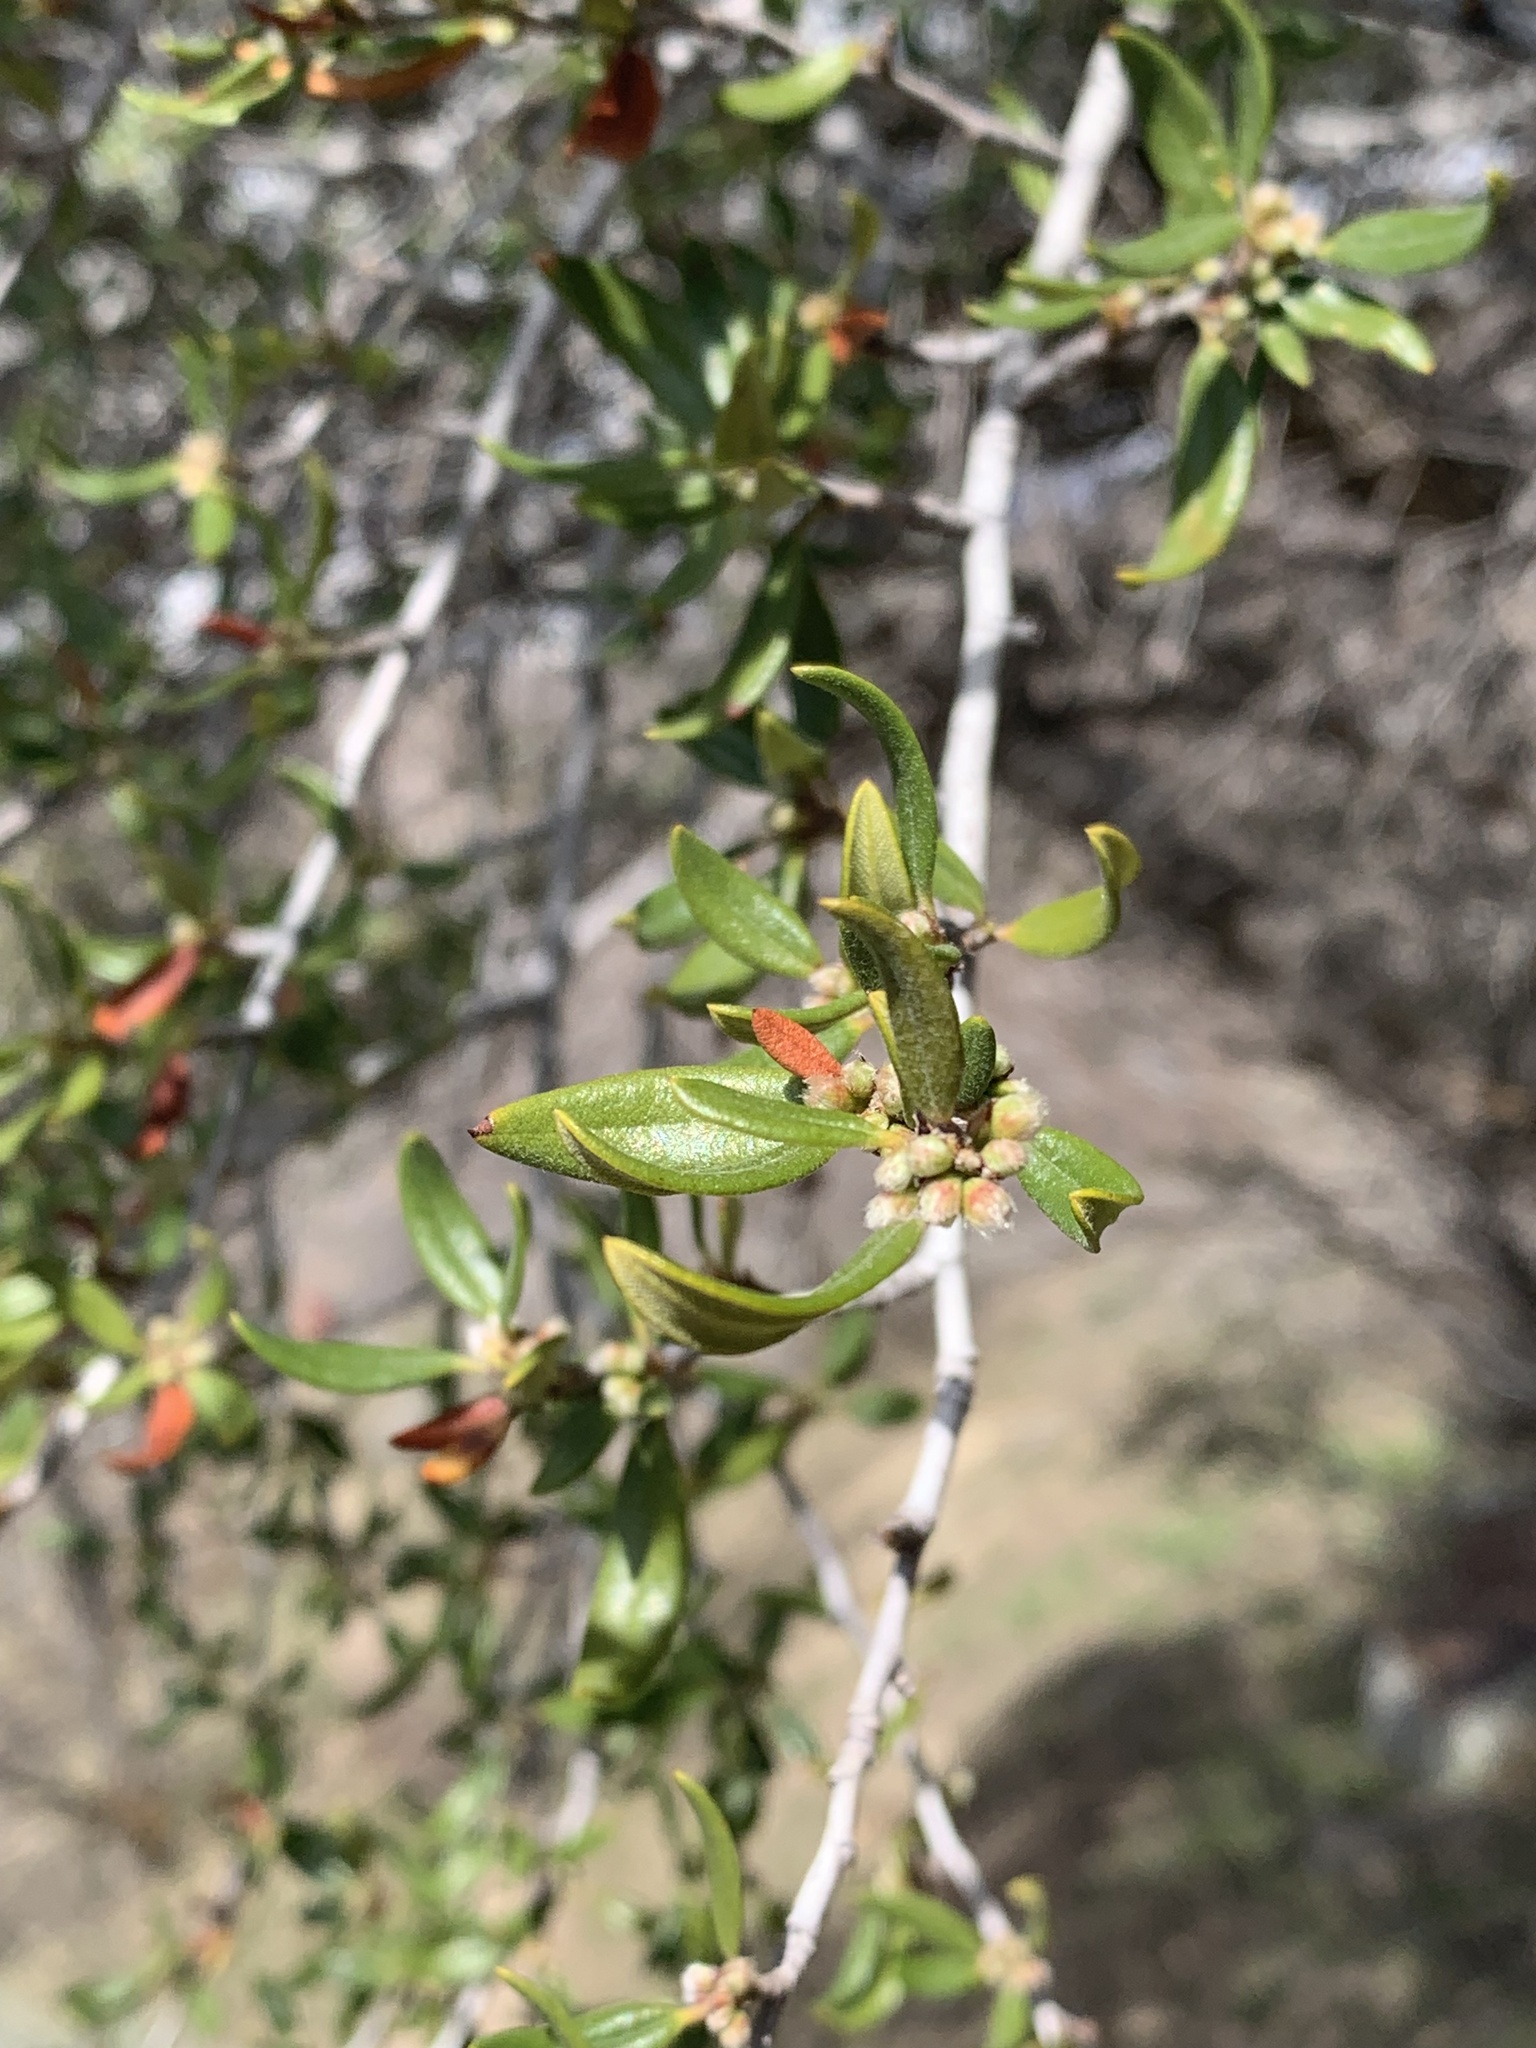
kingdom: Plantae
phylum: Tracheophyta
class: Magnoliopsida
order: Rosales
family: Rosaceae
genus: Cercocarpus
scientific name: Cercocarpus ledifolius
